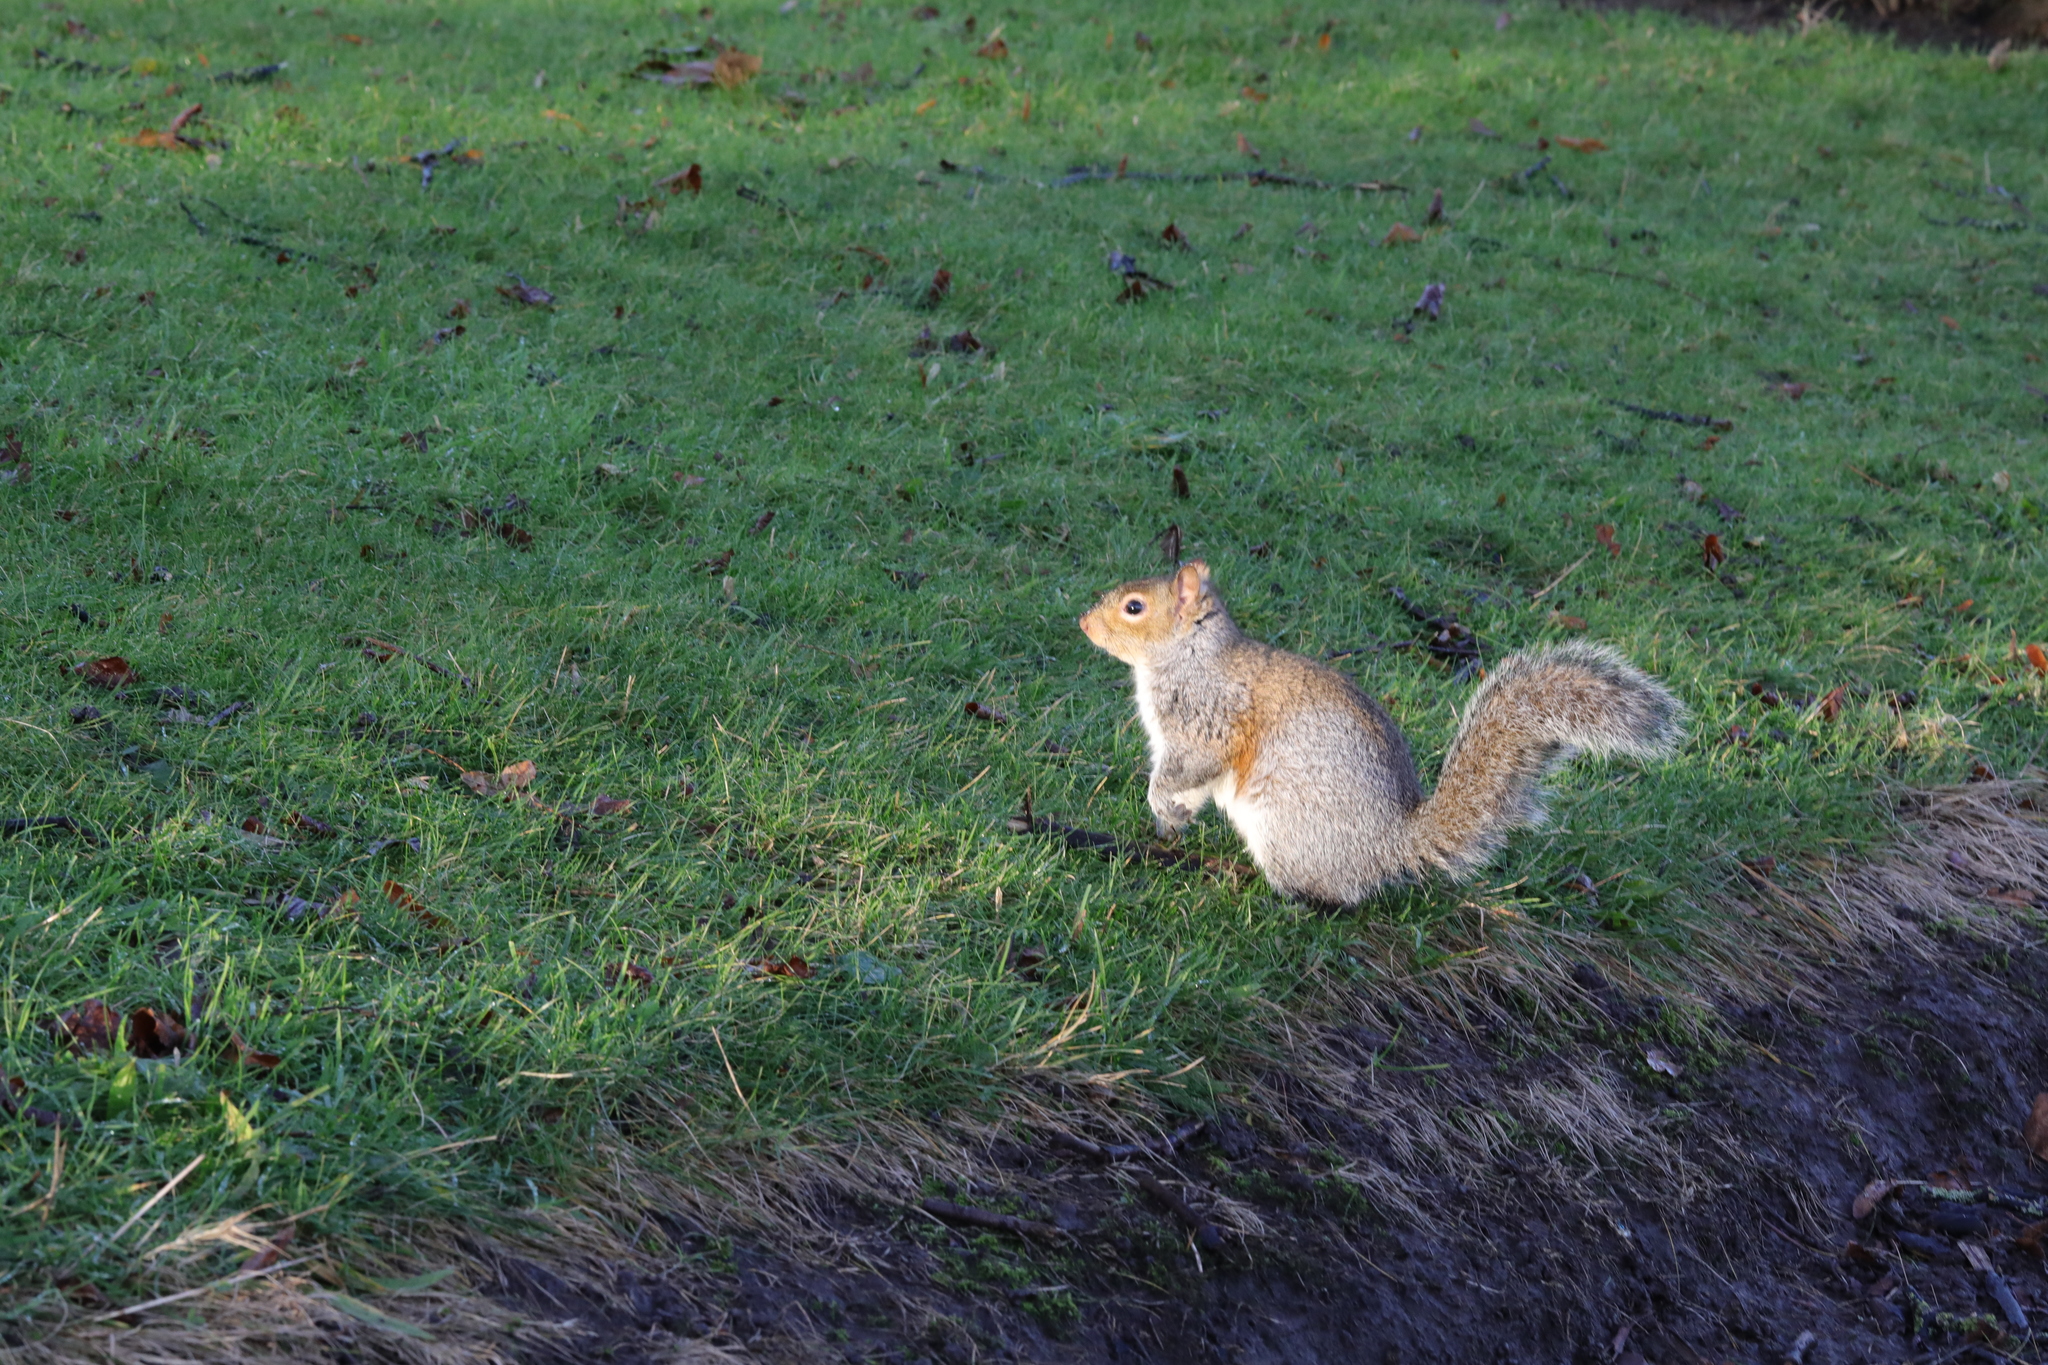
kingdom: Animalia
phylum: Chordata
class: Mammalia
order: Rodentia
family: Sciuridae
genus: Sciurus
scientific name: Sciurus carolinensis
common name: Eastern gray squirrel
